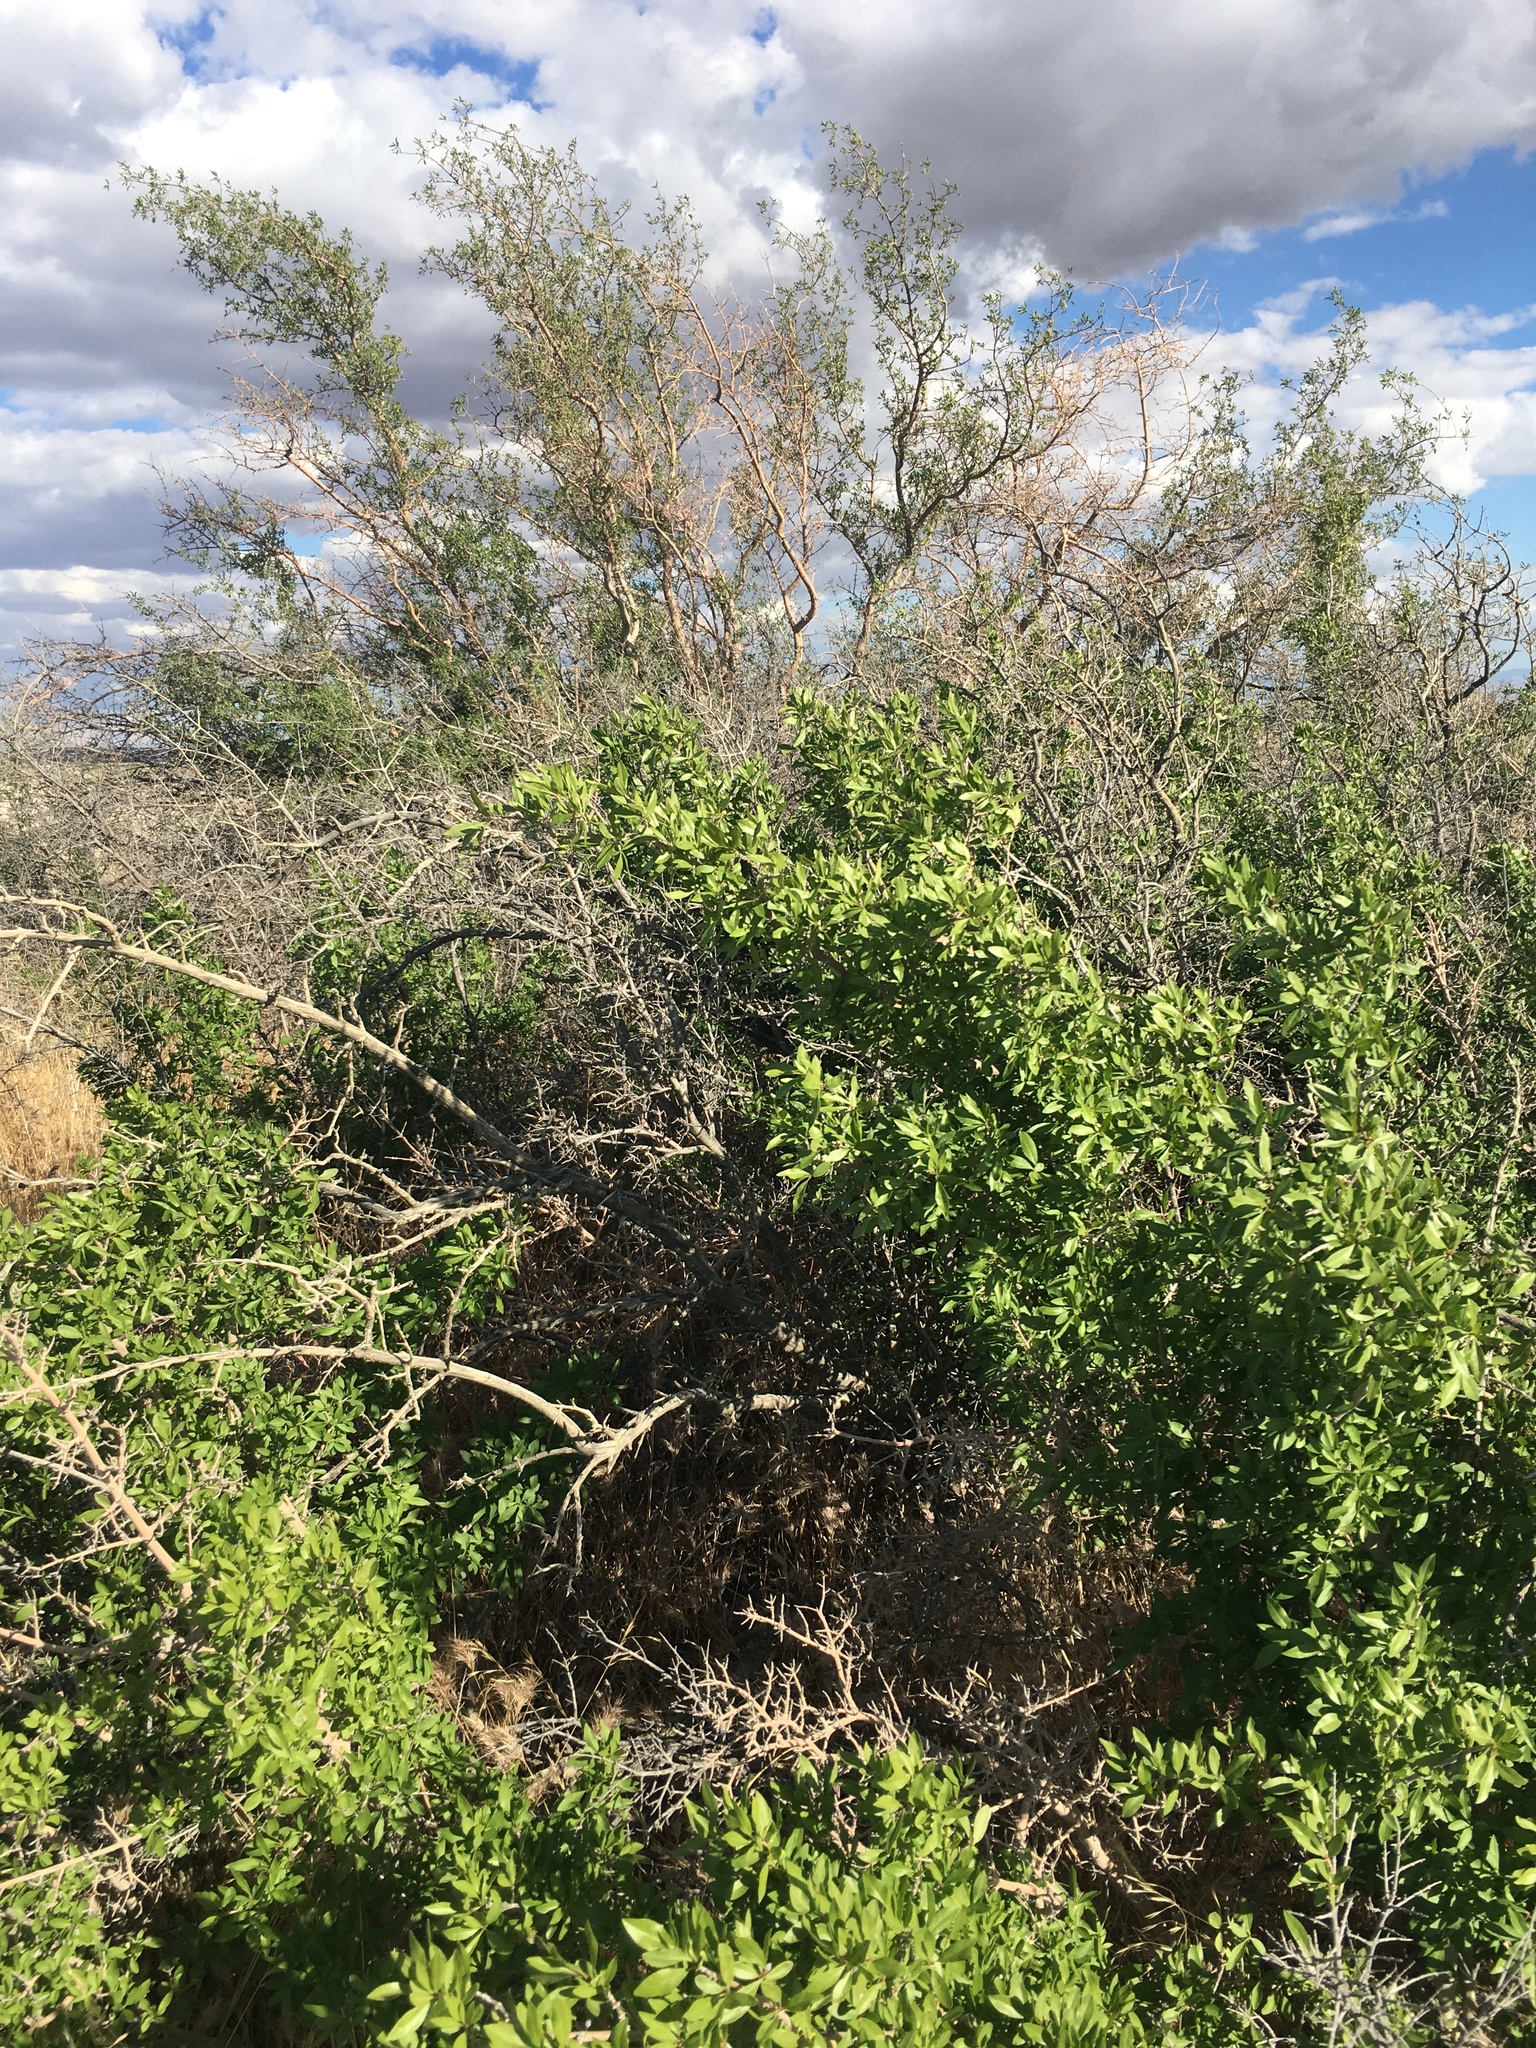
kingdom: Plantae
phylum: Tracheophyta
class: Magnoliopsida
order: Lamiales
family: Oleaceae
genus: Forestiera
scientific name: Forestiera pubescens
